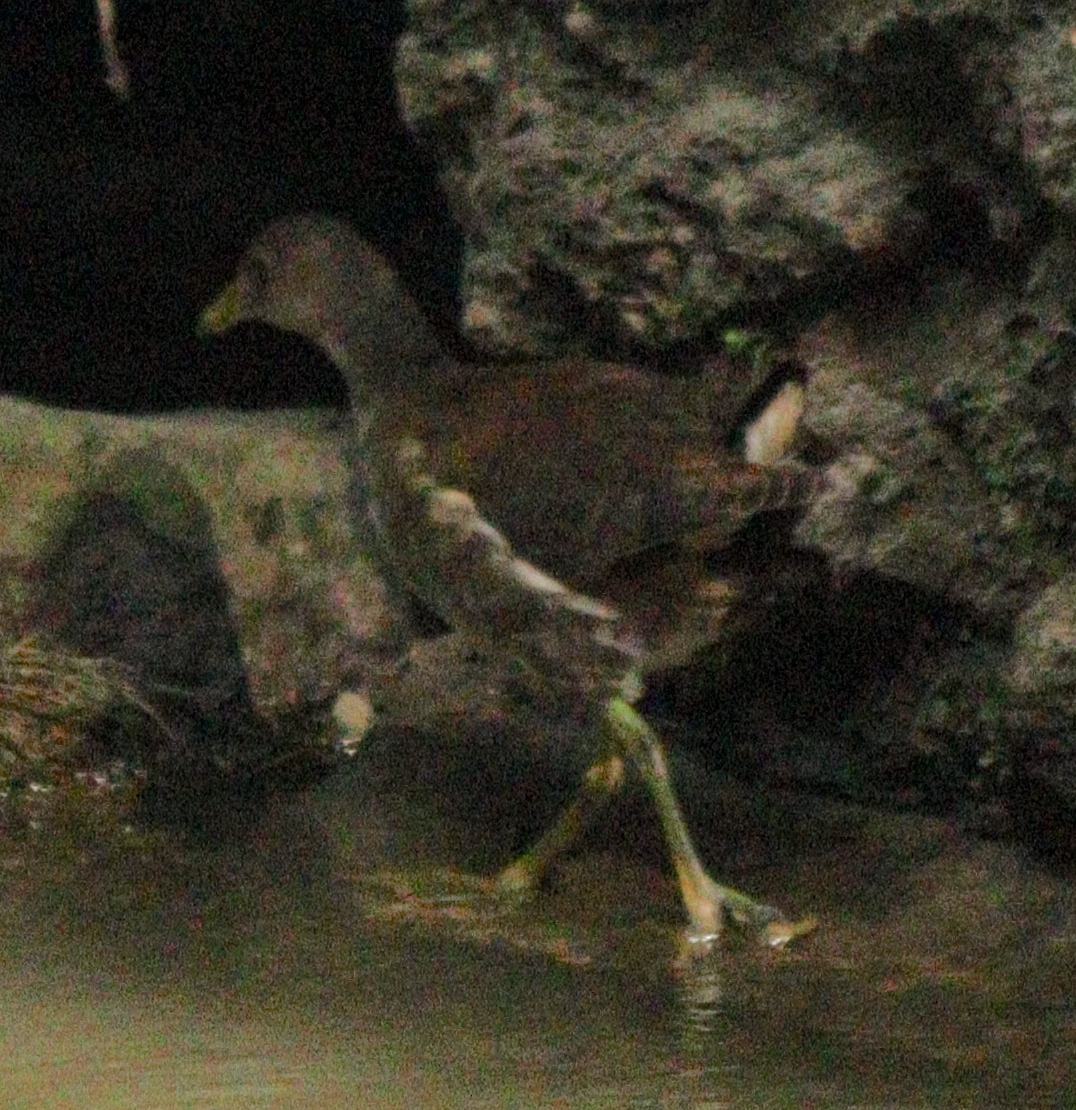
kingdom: Animalia
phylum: Chordata
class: Aves
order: Gruiformes
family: Rallidae
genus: Gallinula
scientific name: Gallinula chloropus
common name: Common moorhen
